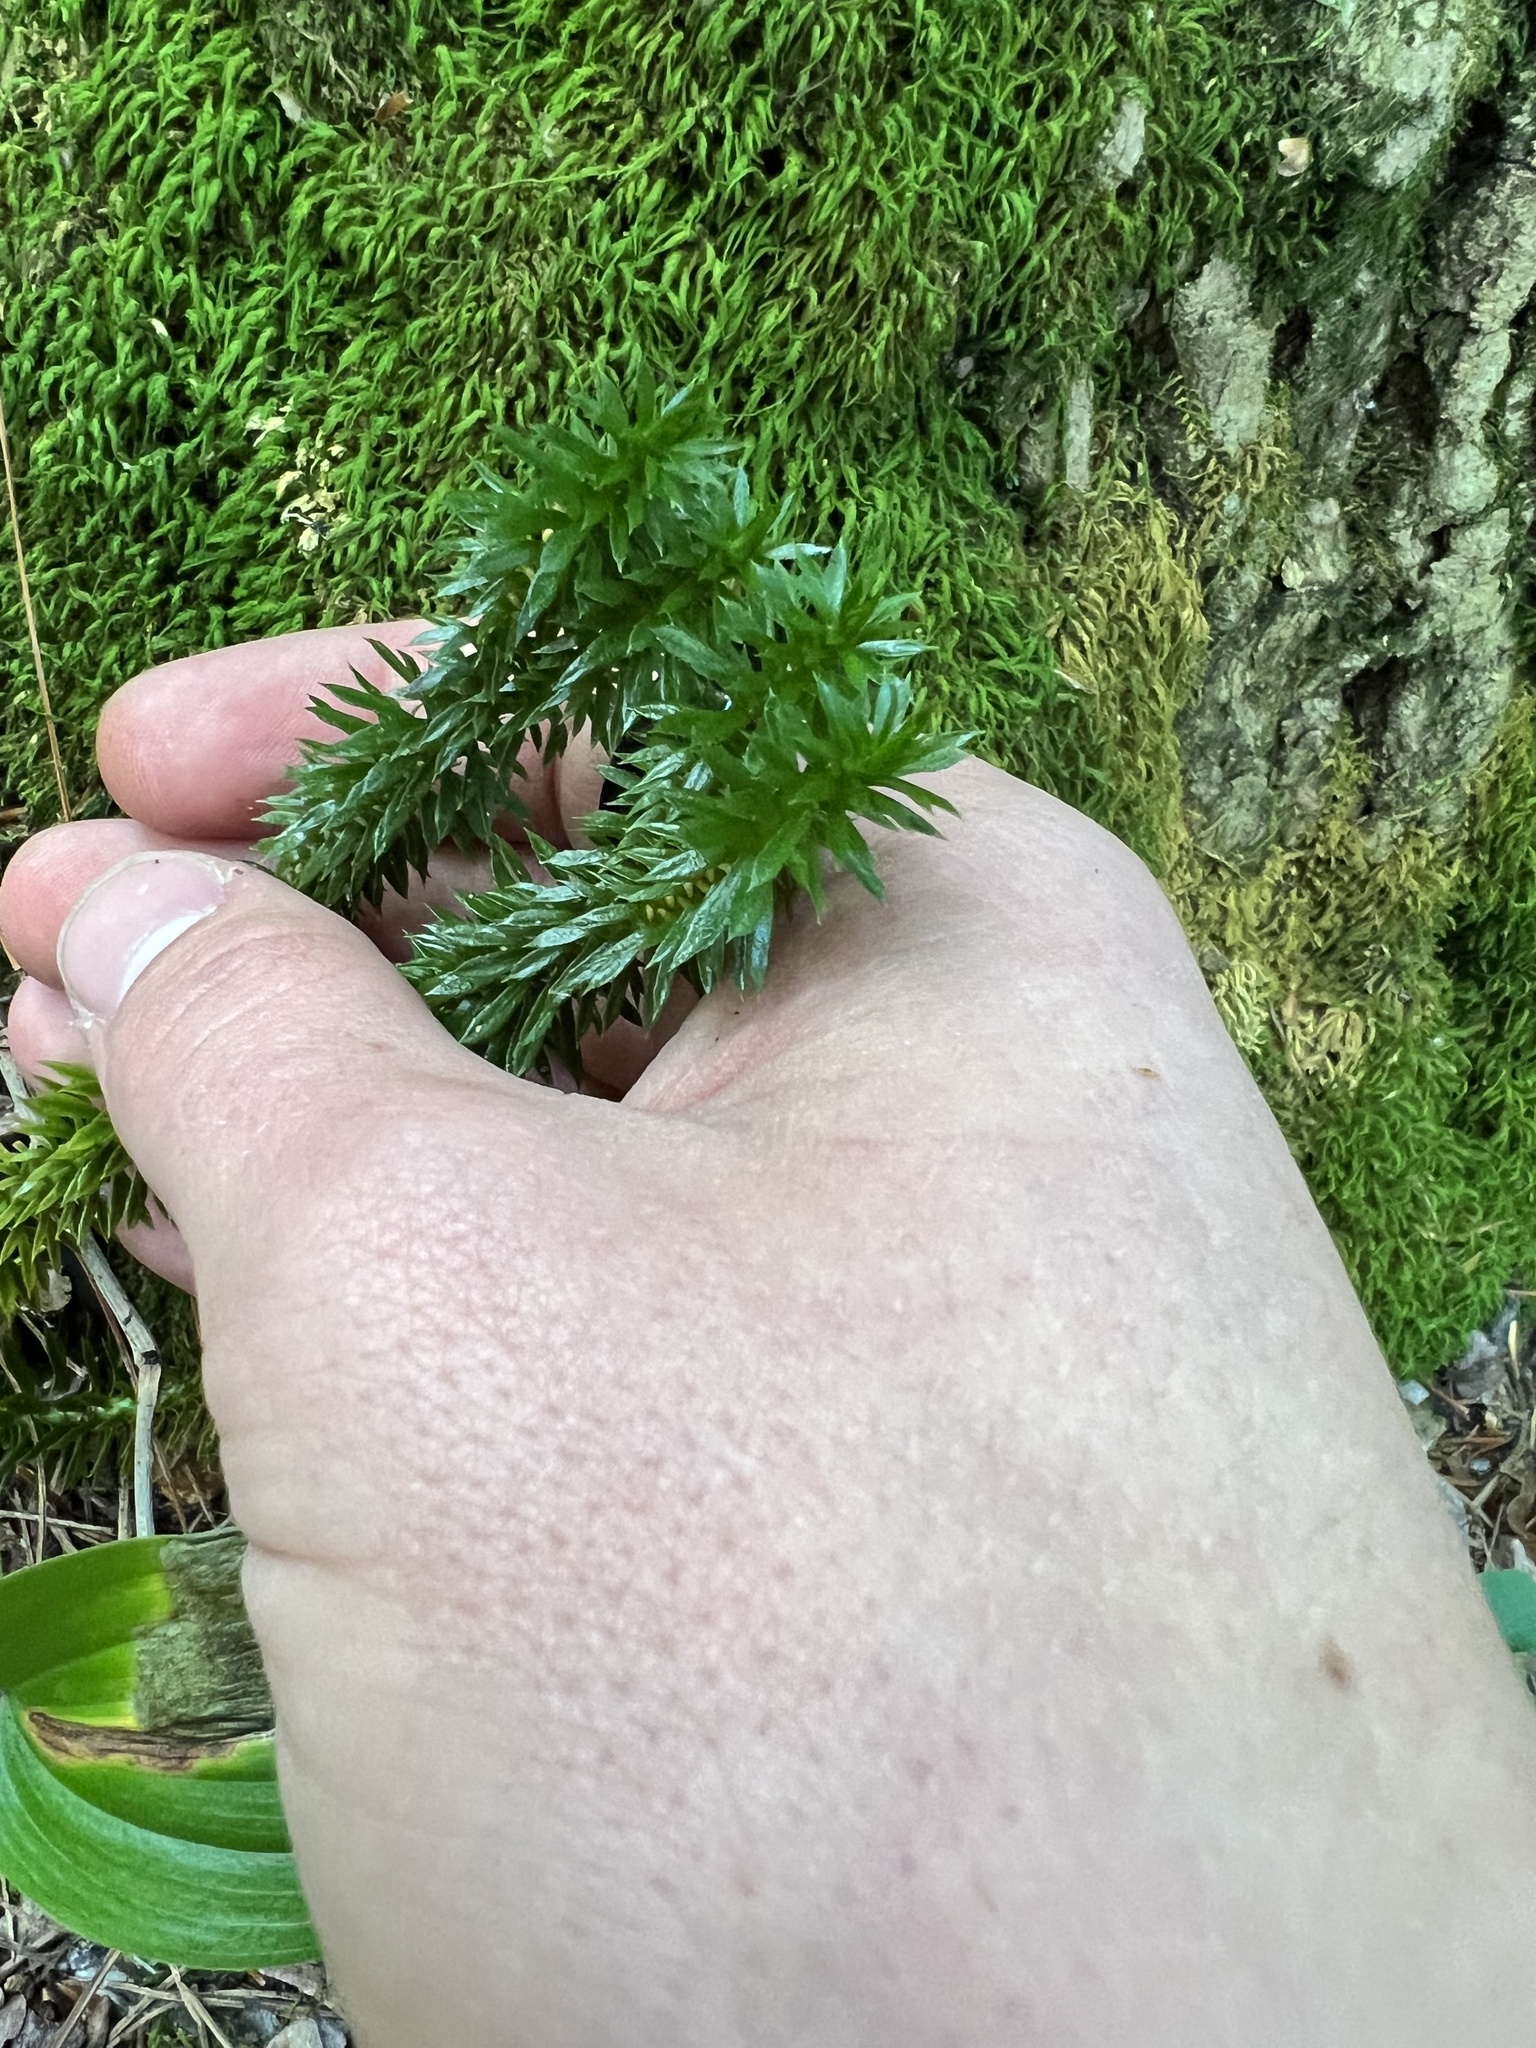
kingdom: Plantae
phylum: Tracheophyta
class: Lycopodiopsida
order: Lycopodiales
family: Lycopodiaceae
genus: Huperzia
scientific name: Huperzia lucidula
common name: Shining clubmoss
